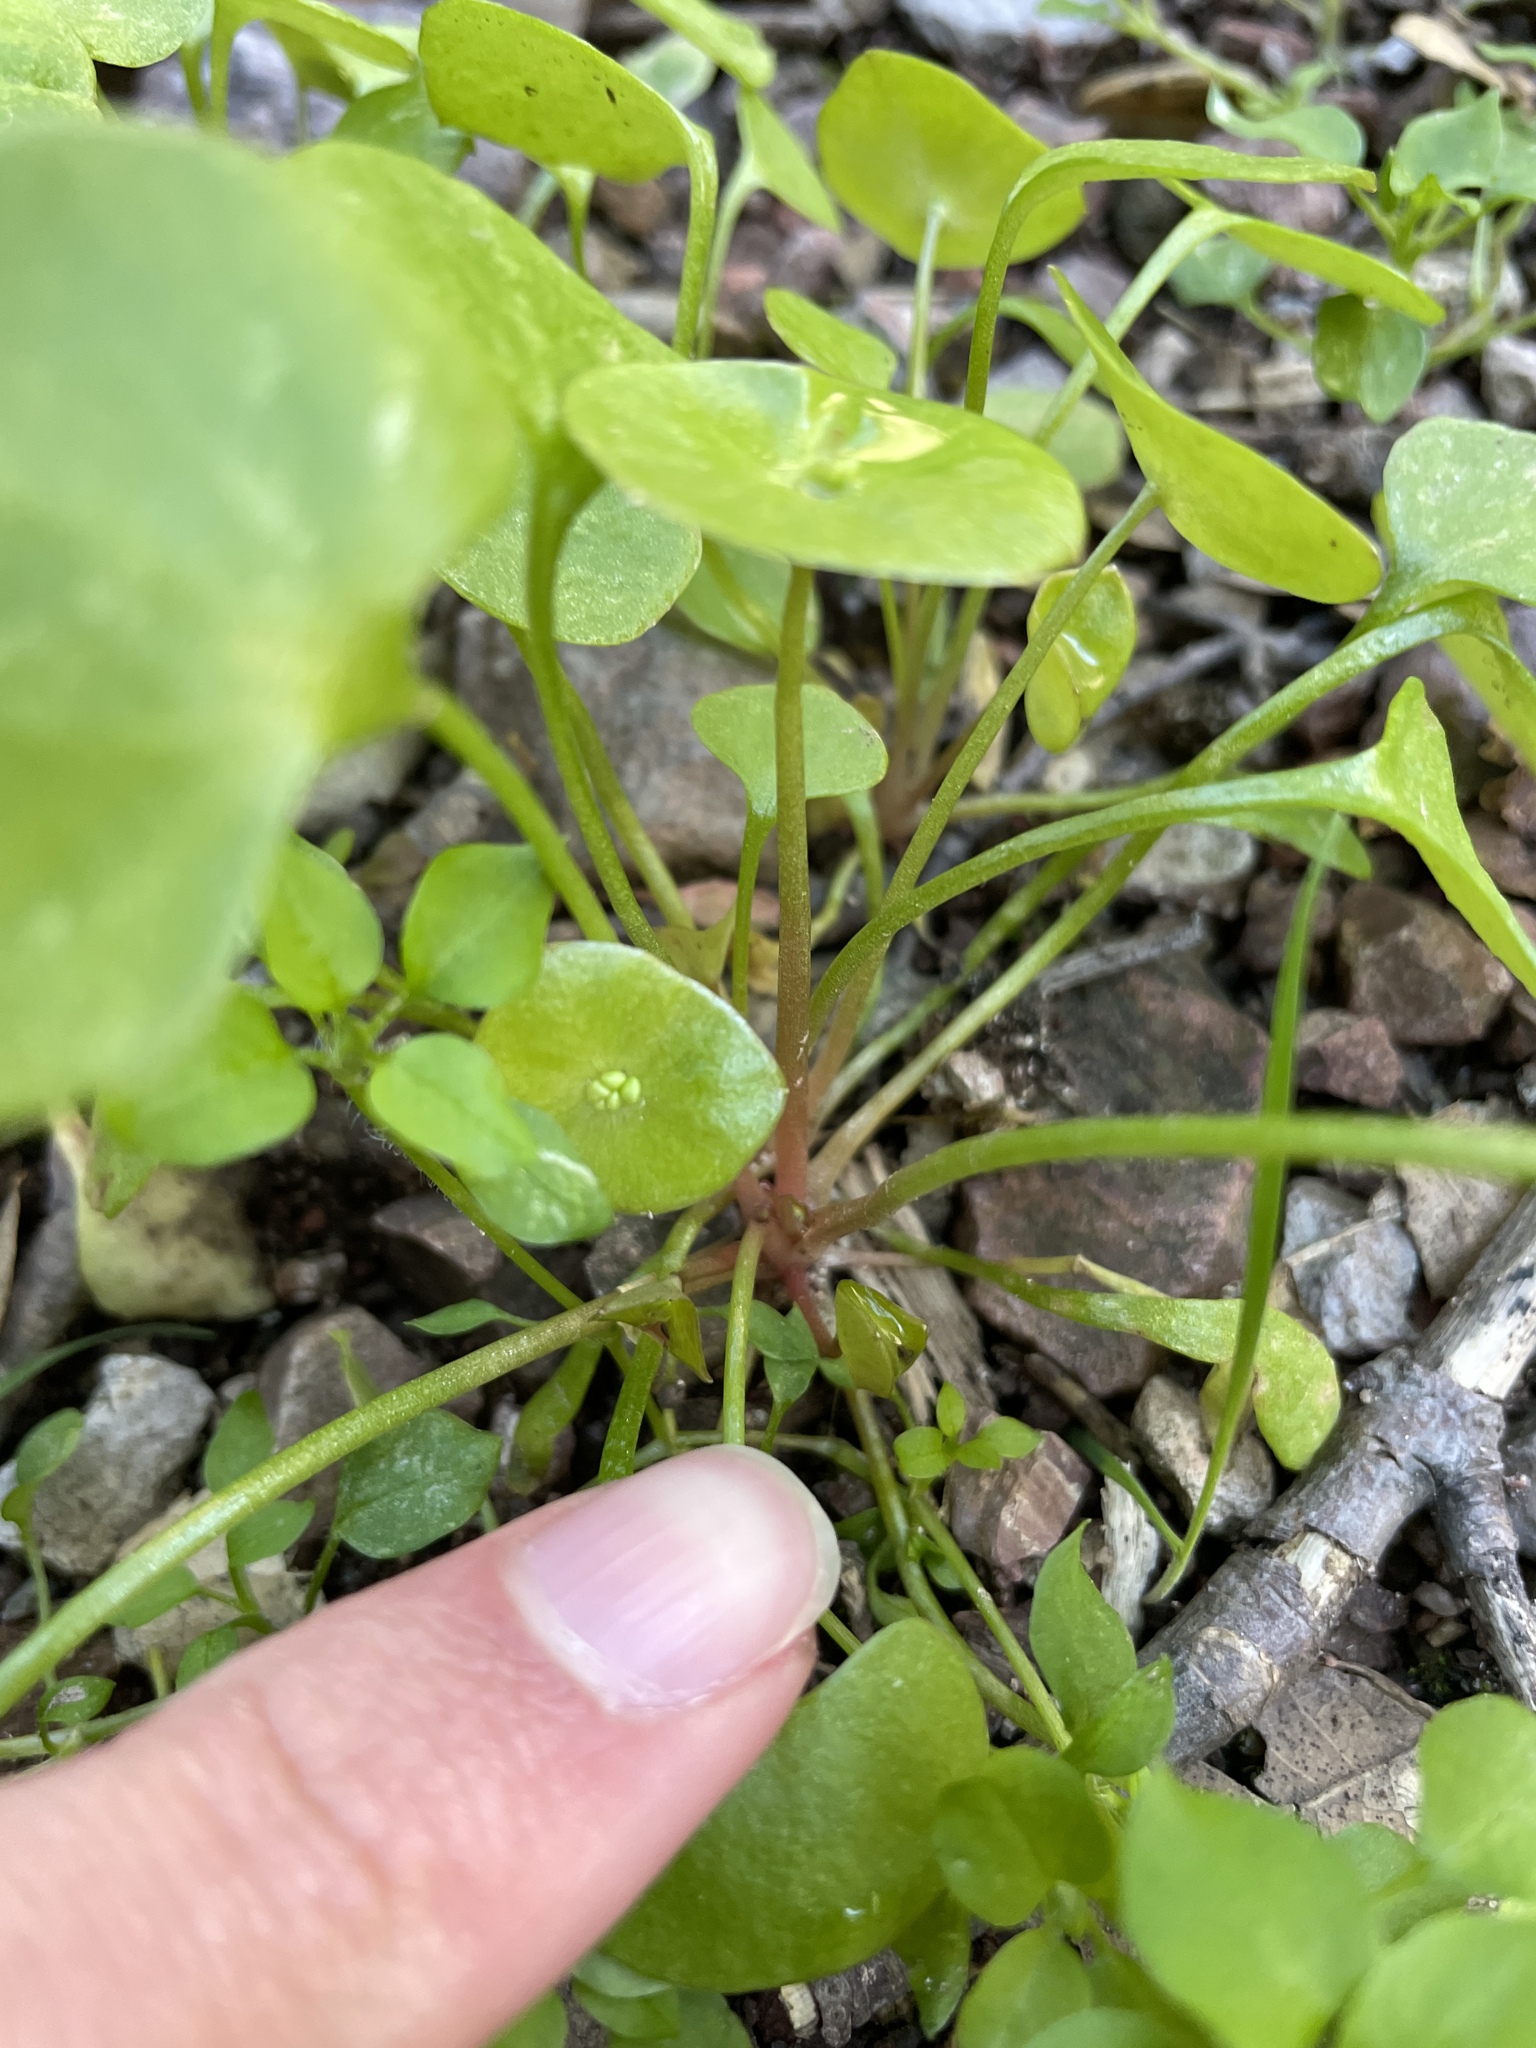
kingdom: Plantae
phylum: Tracheophyta
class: Magnoliopsida
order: Caryophyllales
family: Montiaceae
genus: Claytonia
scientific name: Claytonia perfoliata
